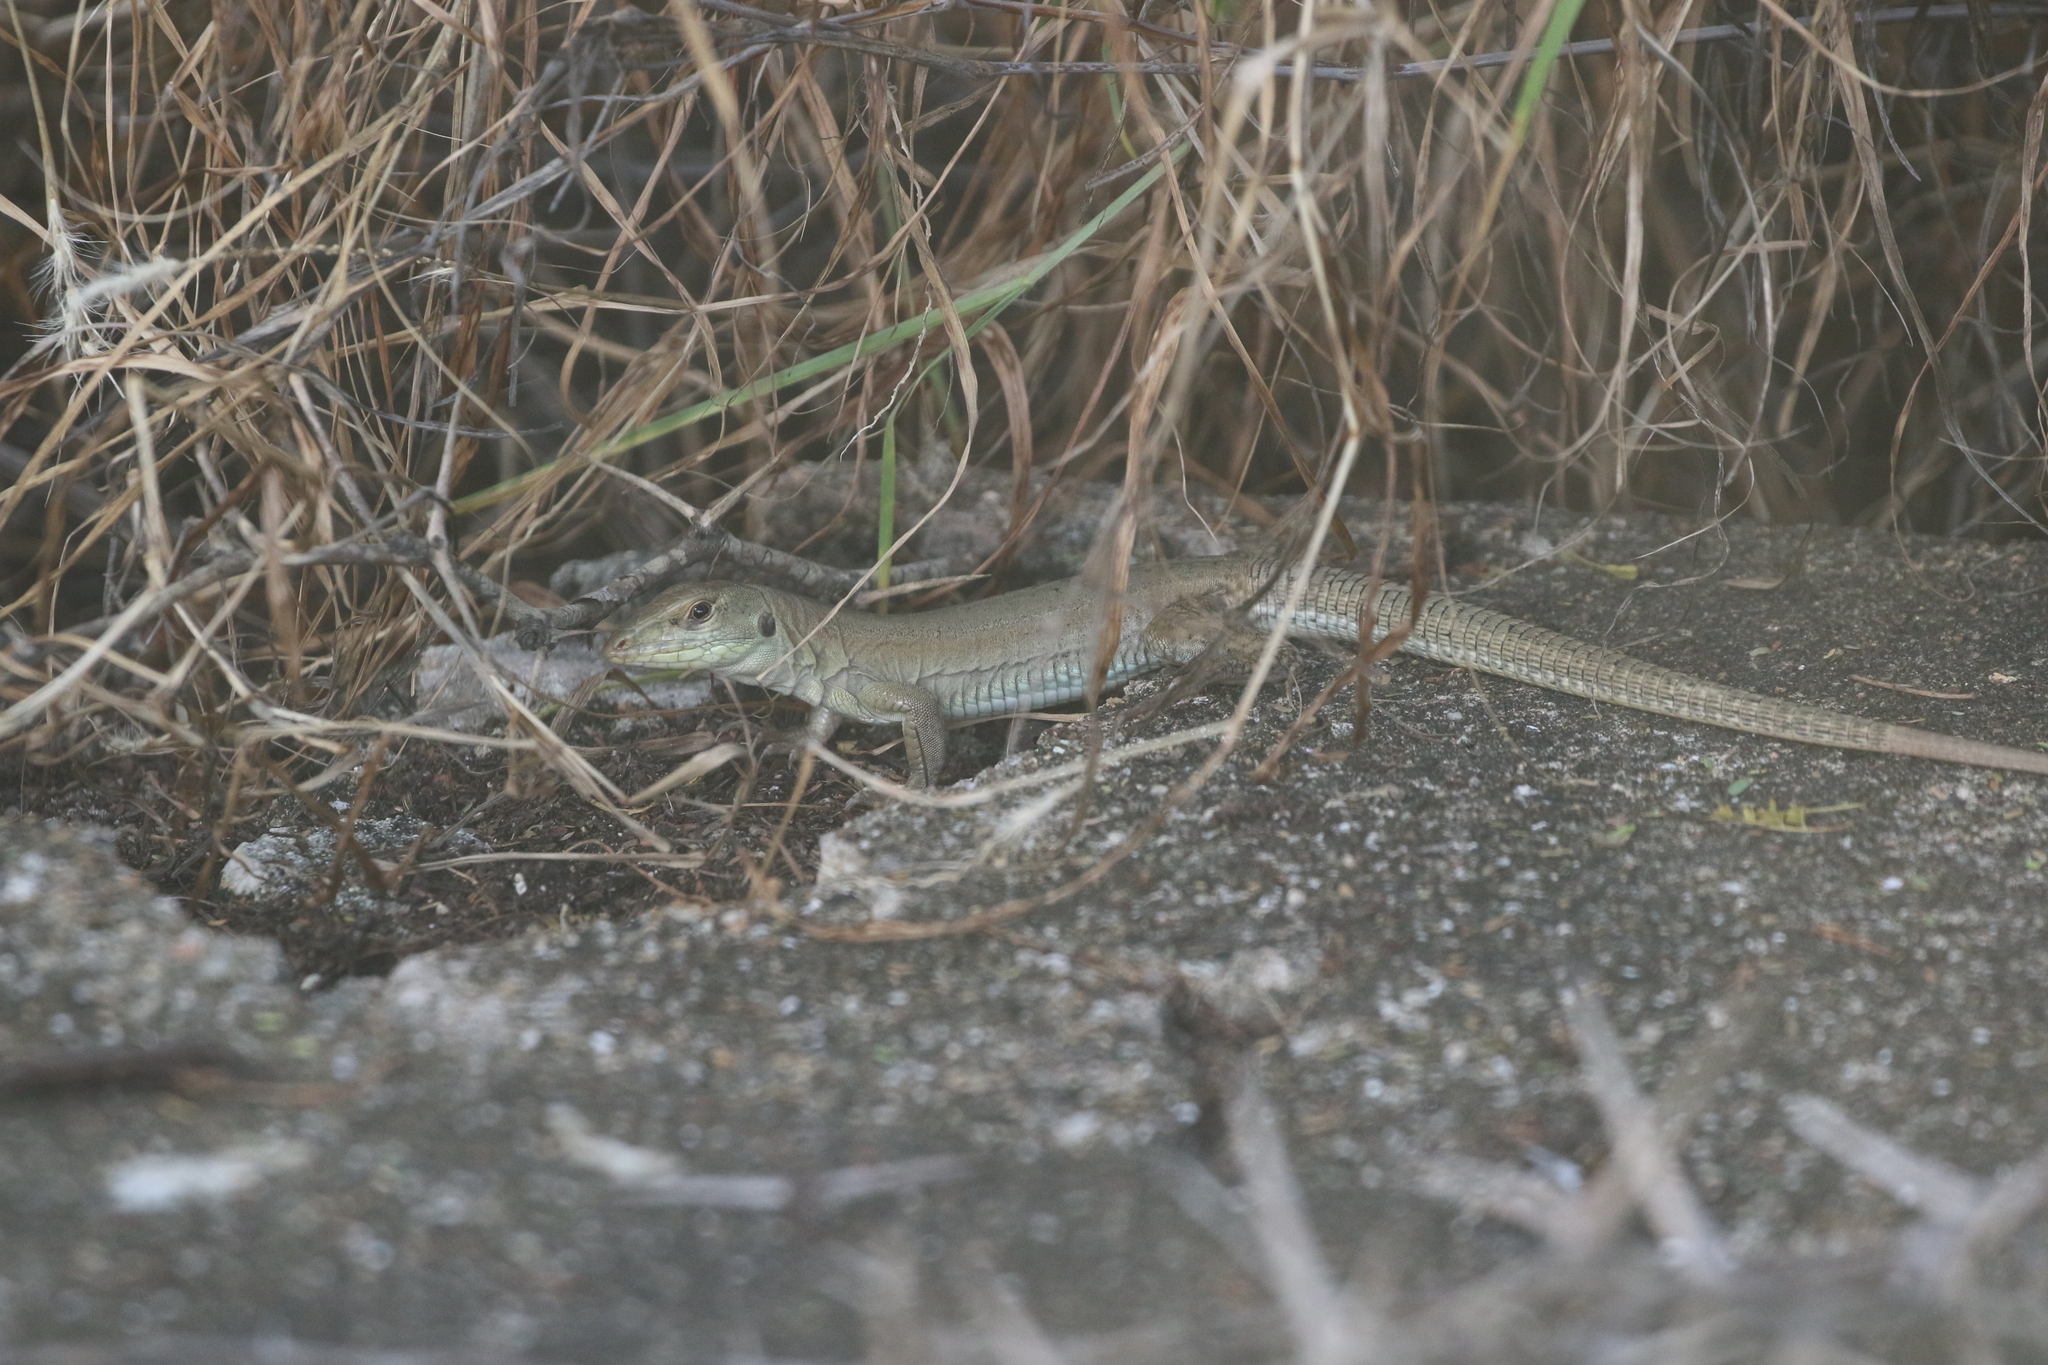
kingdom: Animalia
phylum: Chordata
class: Squamata
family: Teiidae
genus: Ameiva
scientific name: Ameiva bifrontata
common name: Cope's ameiva
